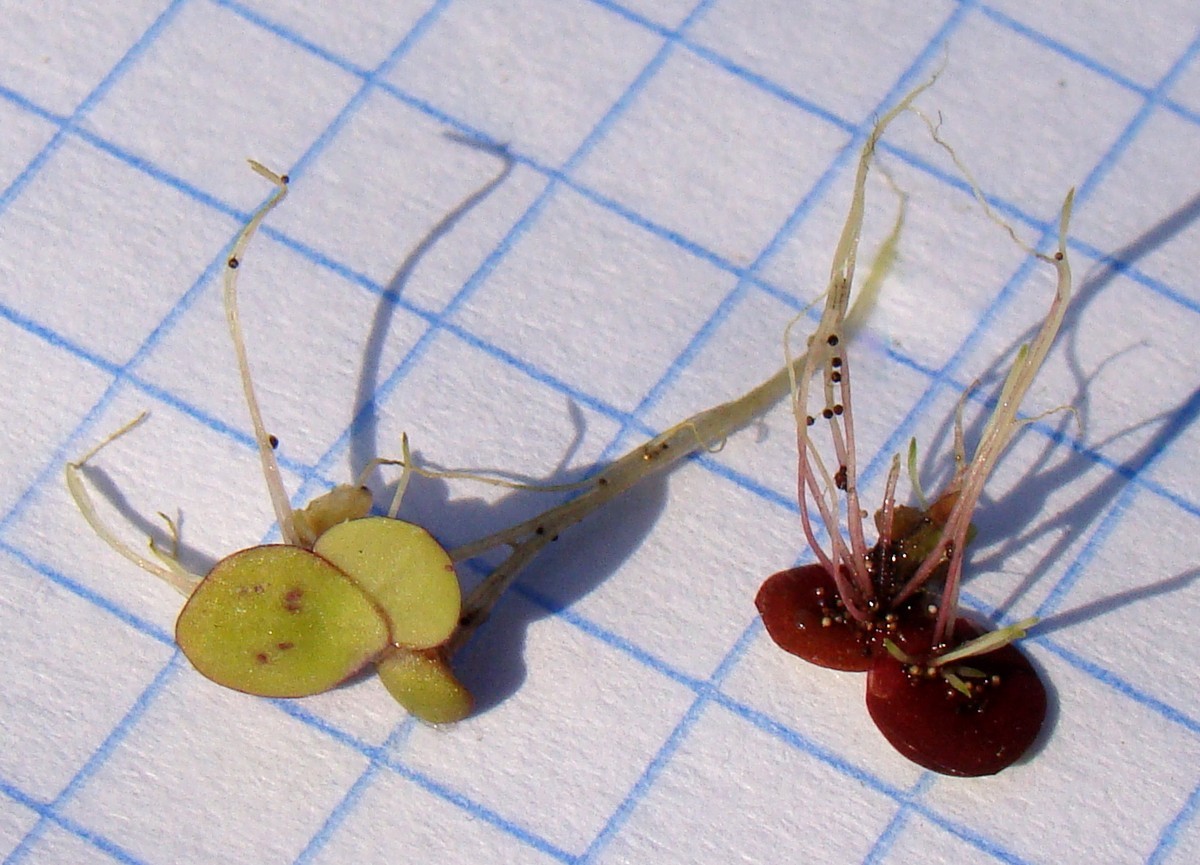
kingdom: Plantae
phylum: Tracheophyta
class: Liliopsida
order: Alismatales
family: Araceae
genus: Spirodela
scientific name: Spirodela polyrhiza
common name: Great duckweed
